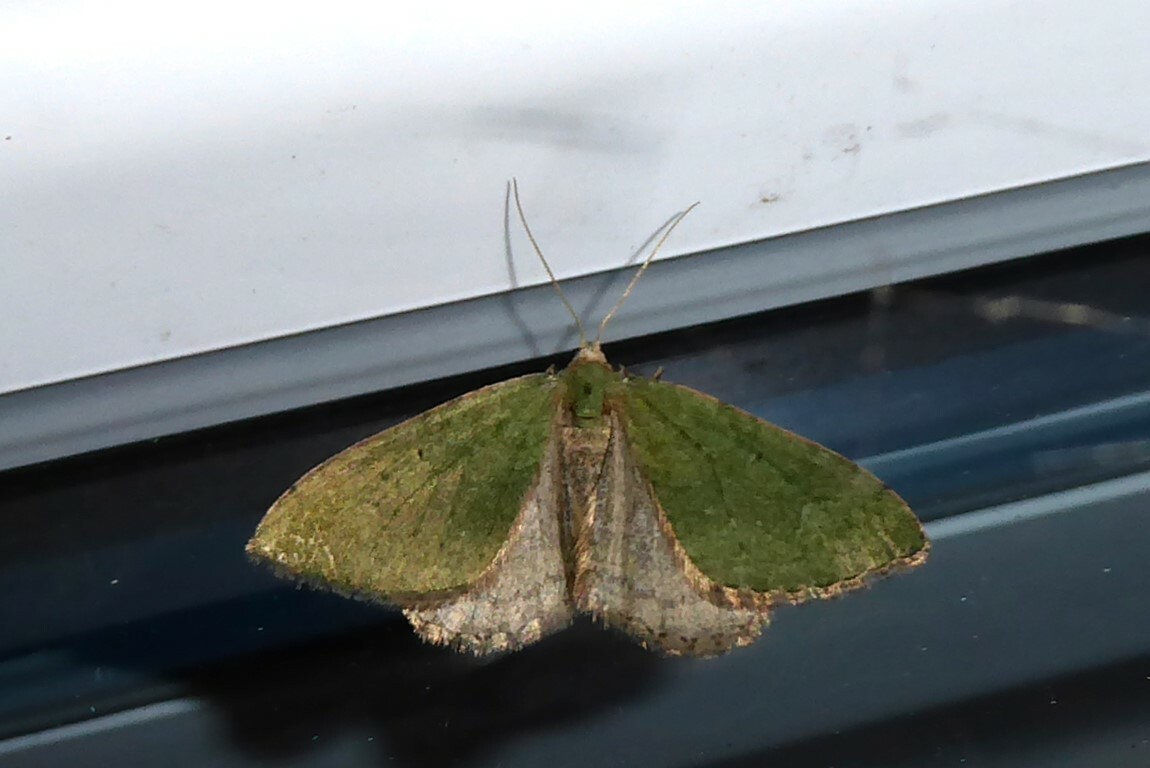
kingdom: Animalia
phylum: Arthropoda
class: Insecta
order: Lepidoptera
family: Geometridae
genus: Epyaxa
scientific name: Epyaxa rosearia
